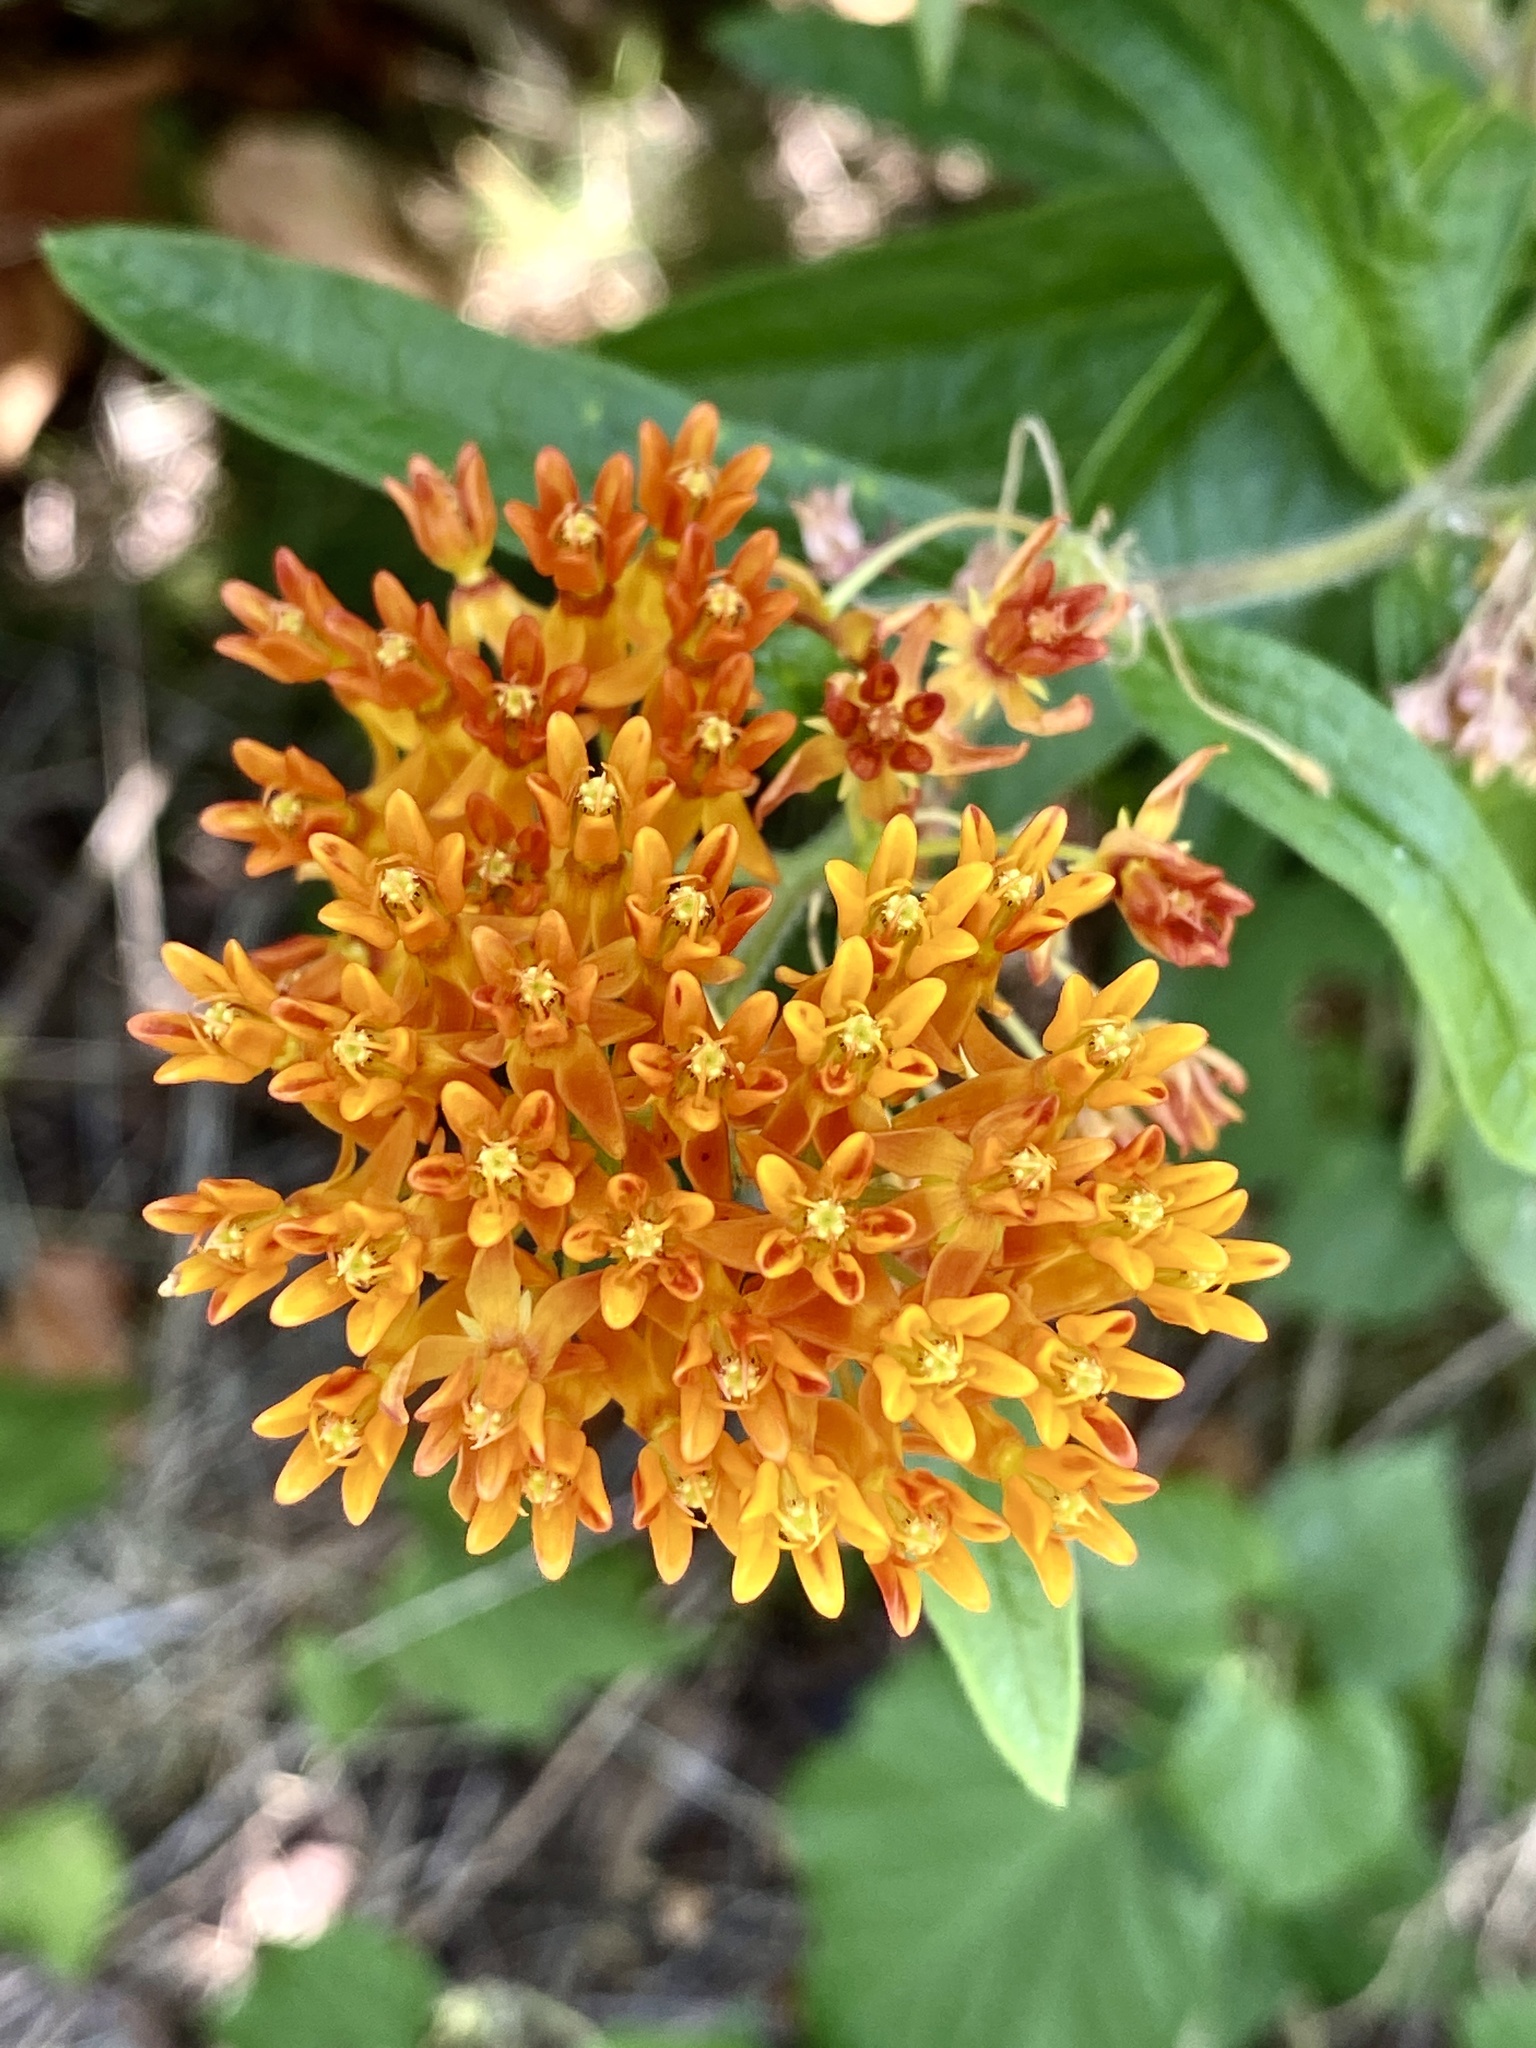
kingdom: Plantae
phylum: Tracheophyta
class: Magnoliopsida
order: Gentianales
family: Apocynaceae
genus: Asclepias
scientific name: Asclepias tuberosa
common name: Butterfly milkweed
